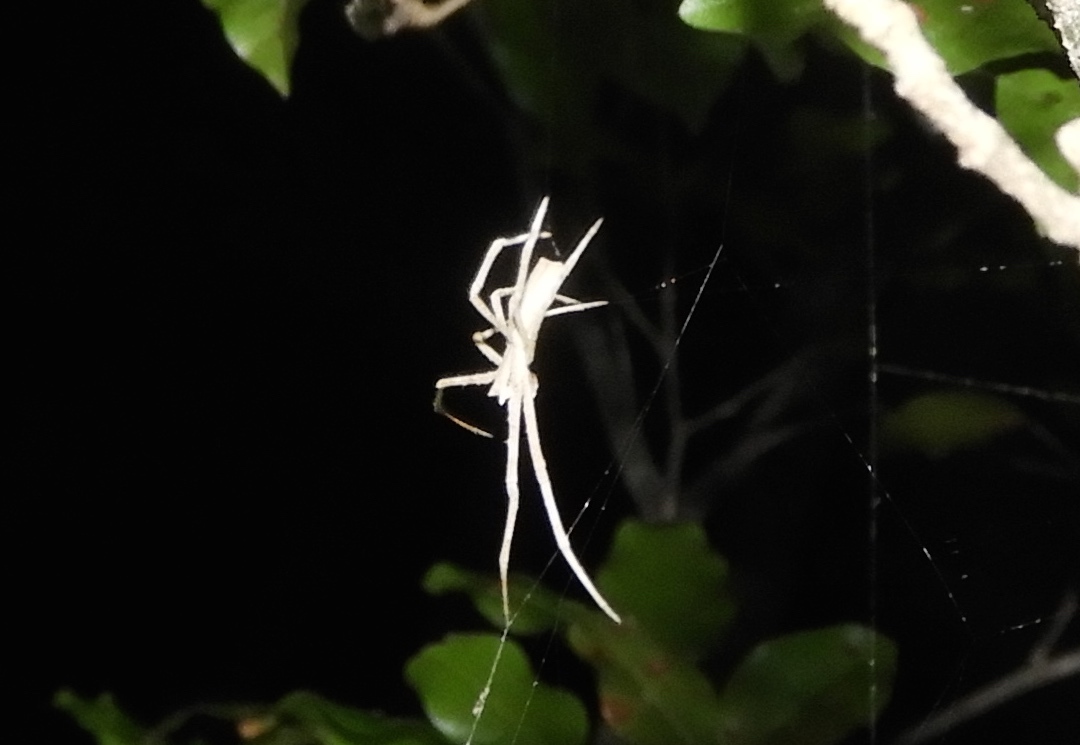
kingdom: Animalia
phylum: Arthropoda
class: Arachnida
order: Araneae
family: Deinopidae
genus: Deinopis
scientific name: Deinopis aurita
